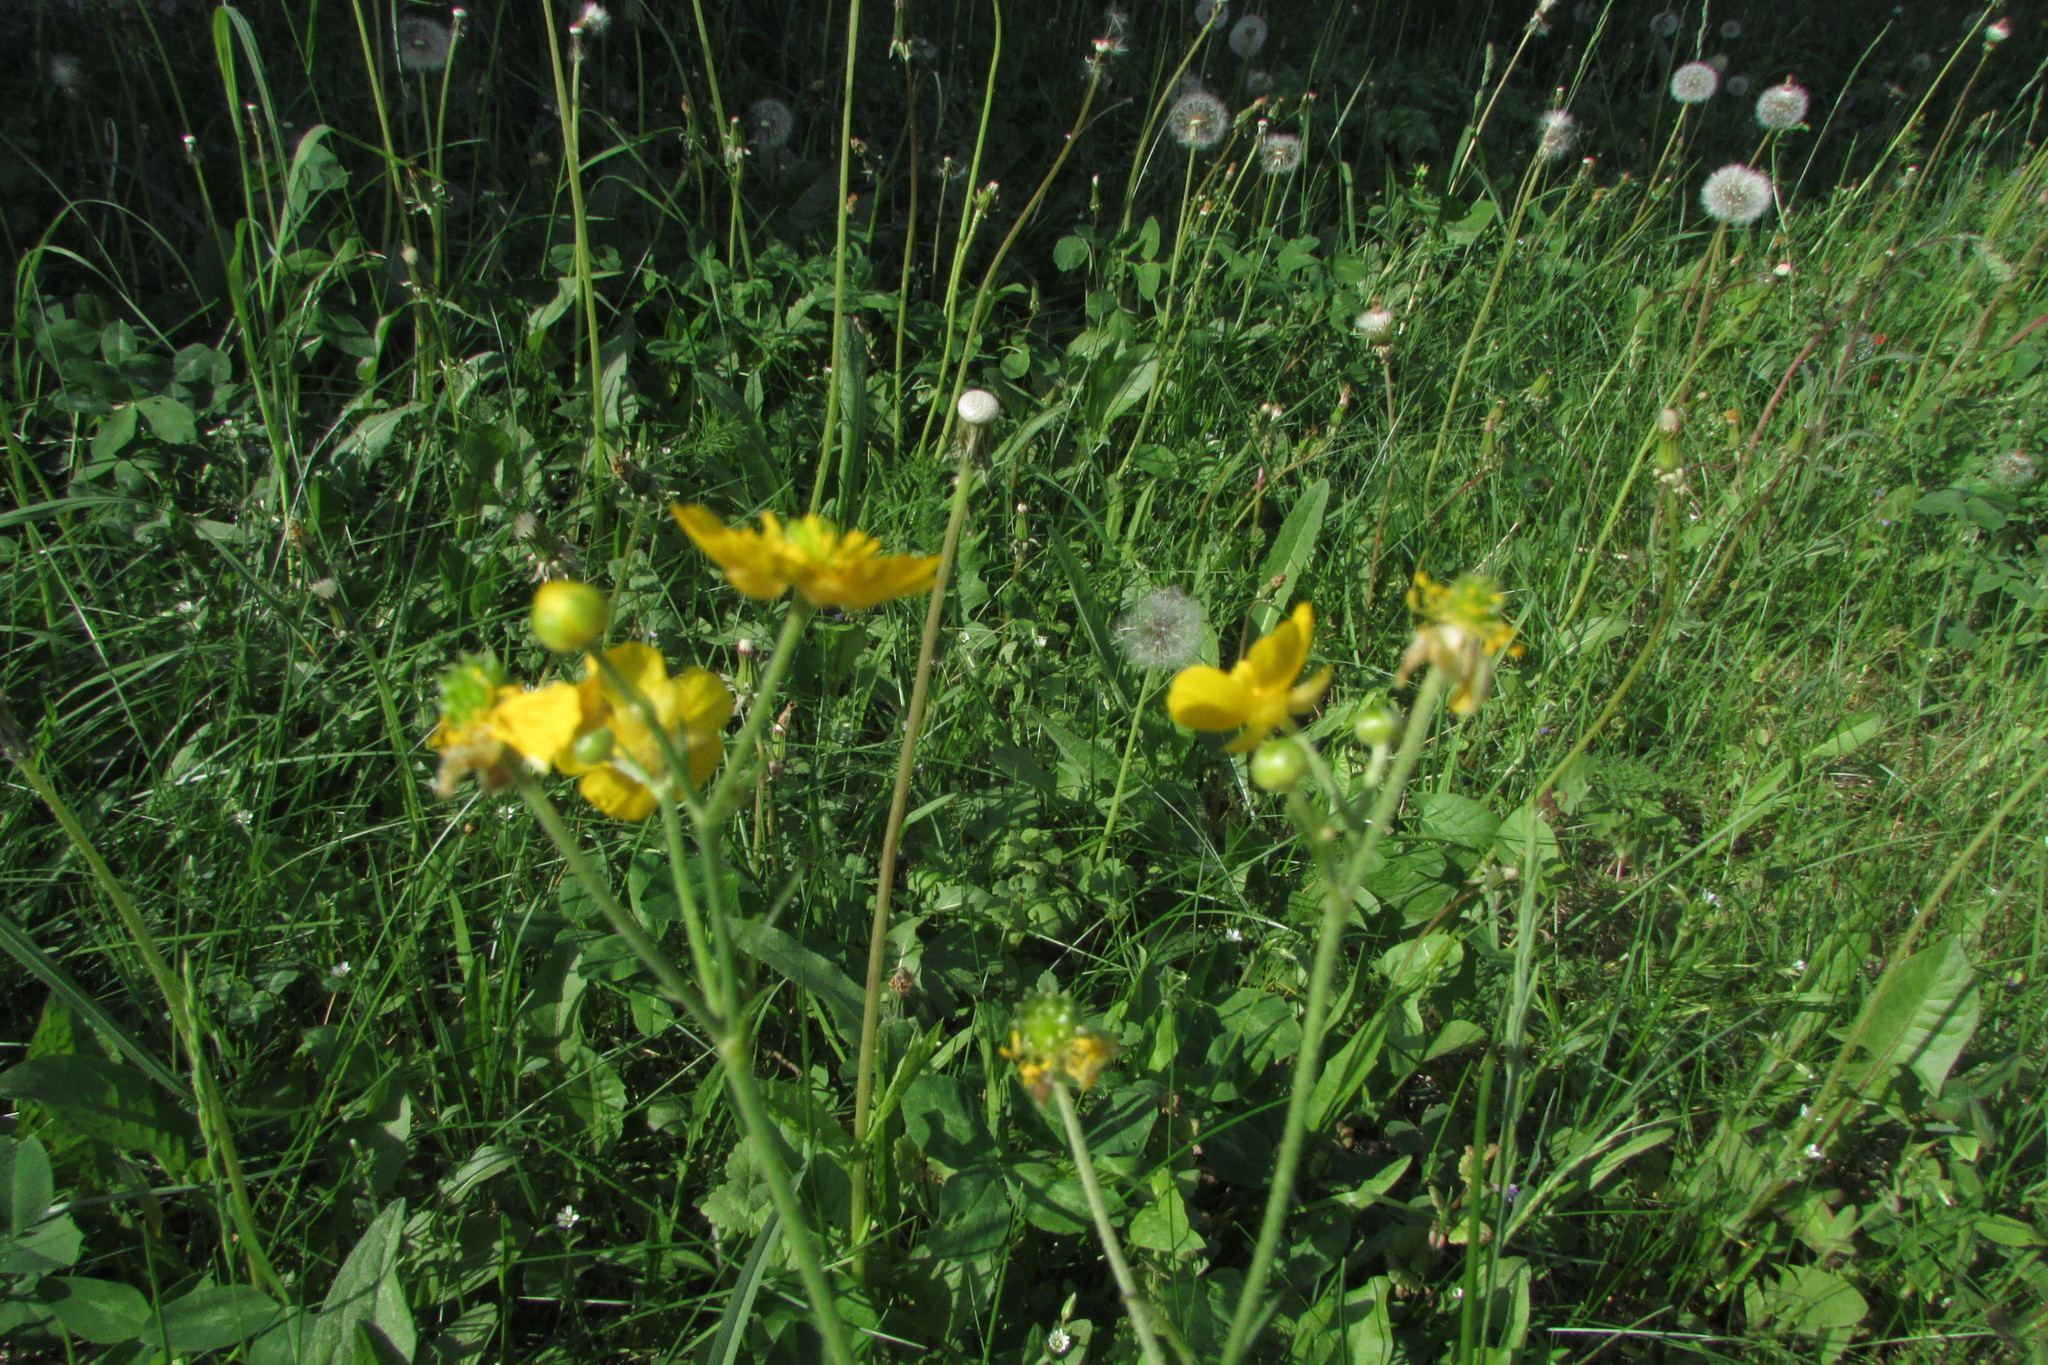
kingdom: Plantae
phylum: Tracheophyta
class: Magnoliopsida
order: Ranunculales
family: Ranunculaceae
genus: Ranunculus
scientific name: Ranunculus acris
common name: Meadow buttercup
